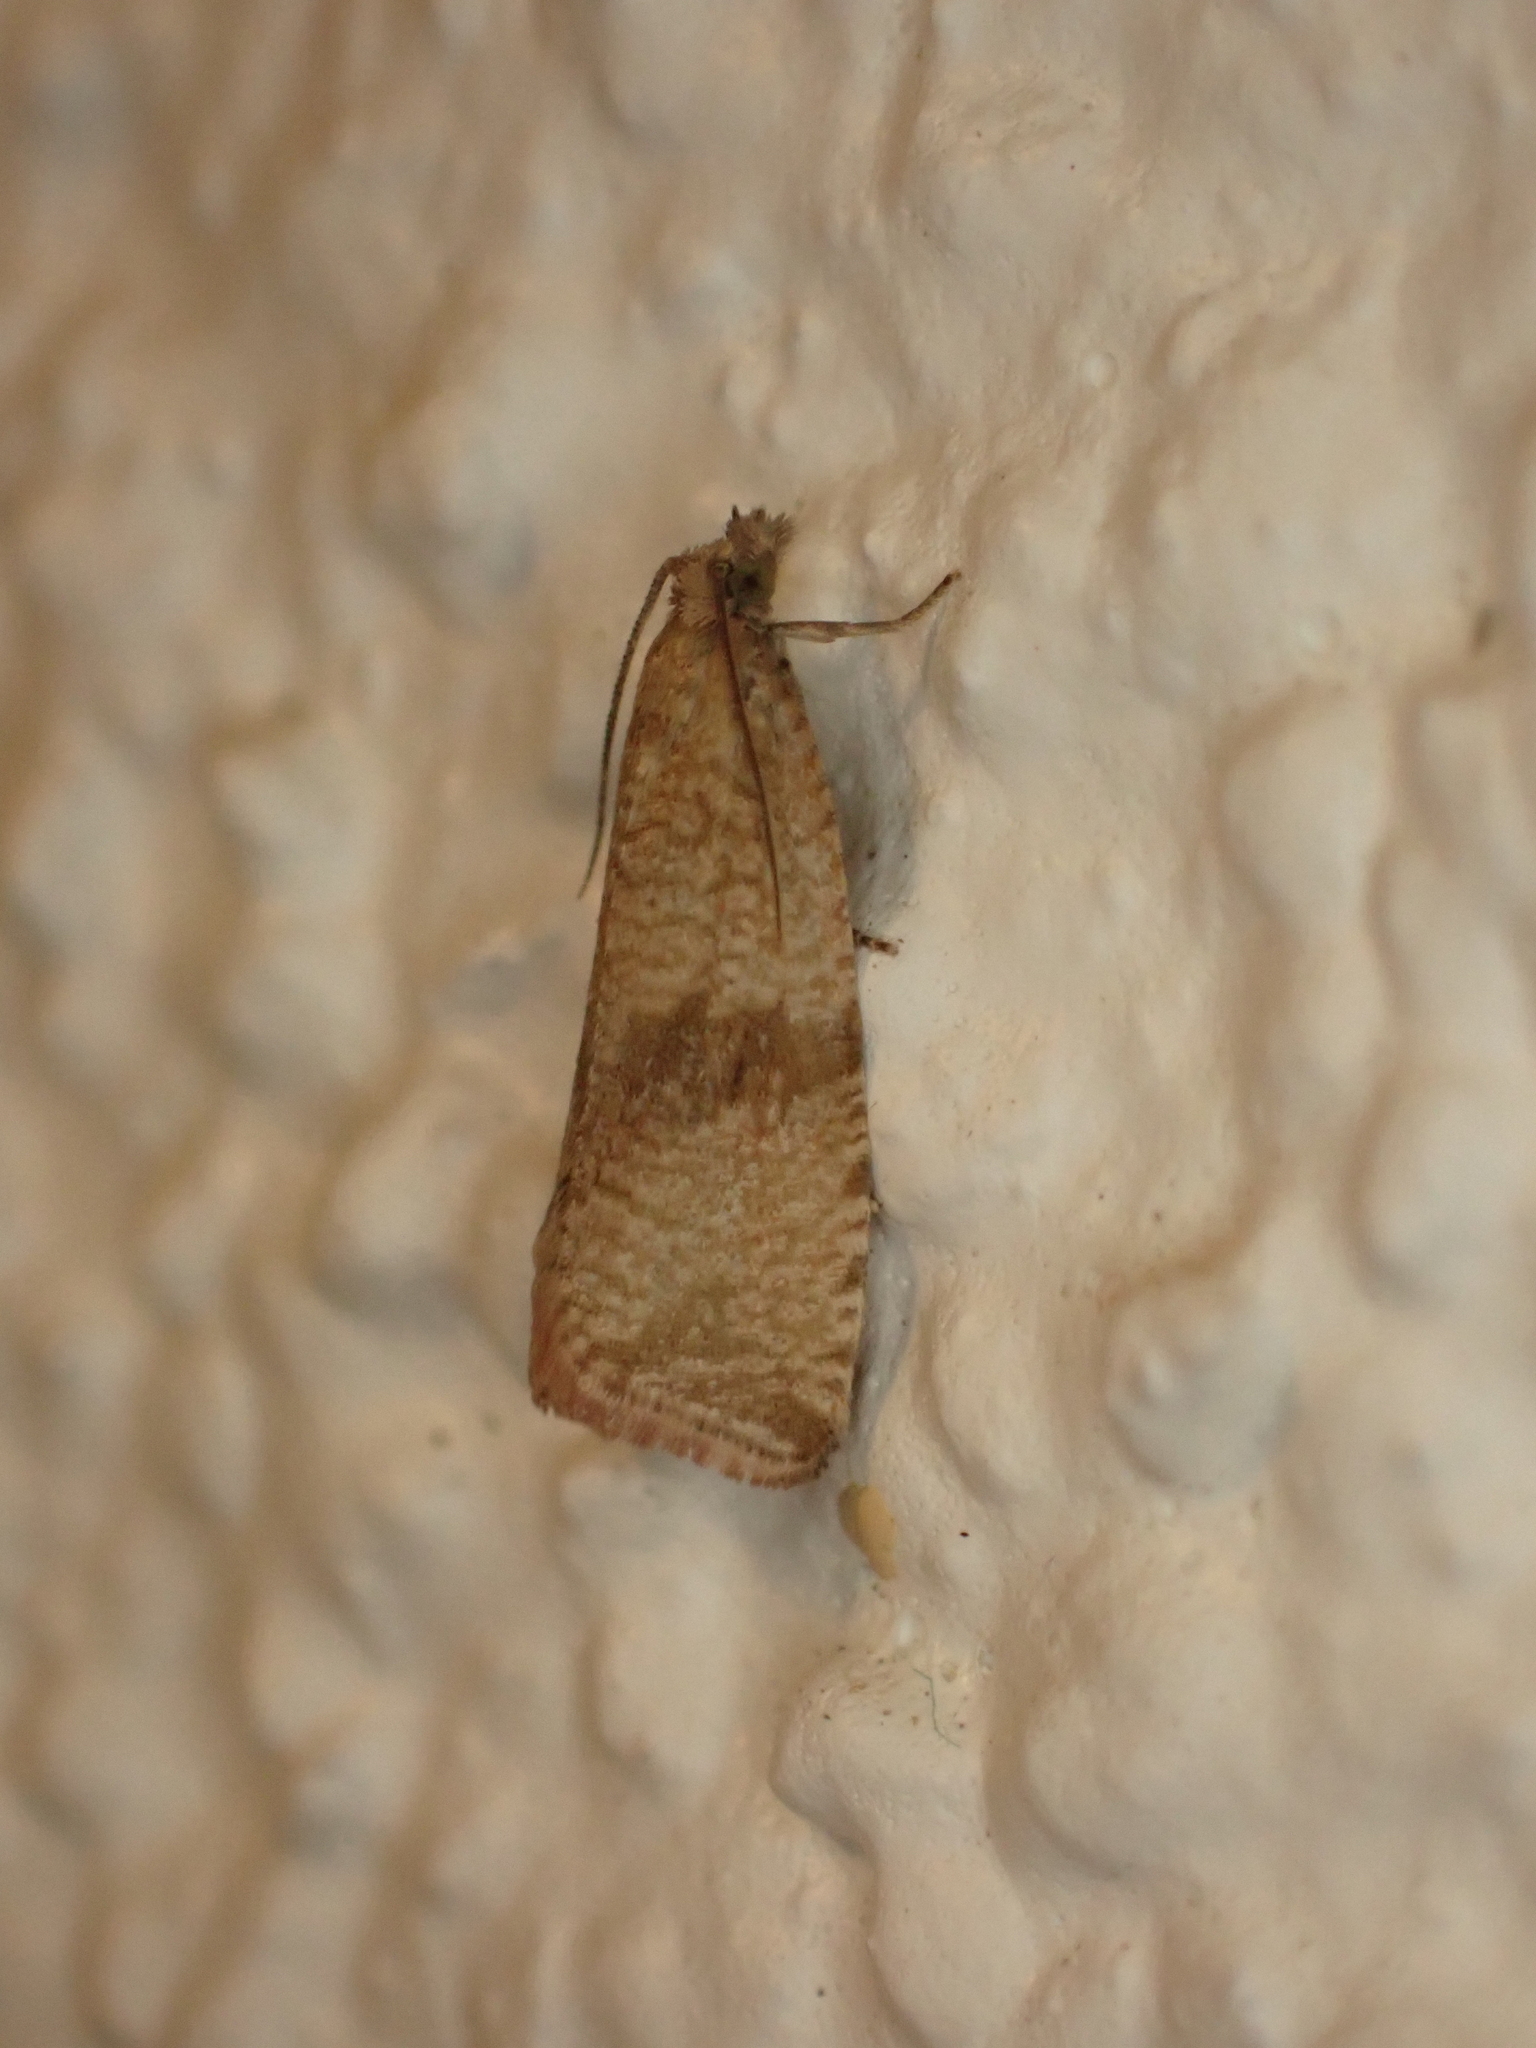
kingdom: Animalia
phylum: Arthropoda
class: Insecta
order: Lepidoptera
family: Tortricidae
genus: Celypha
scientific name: Celypha striana
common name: Barred marble
